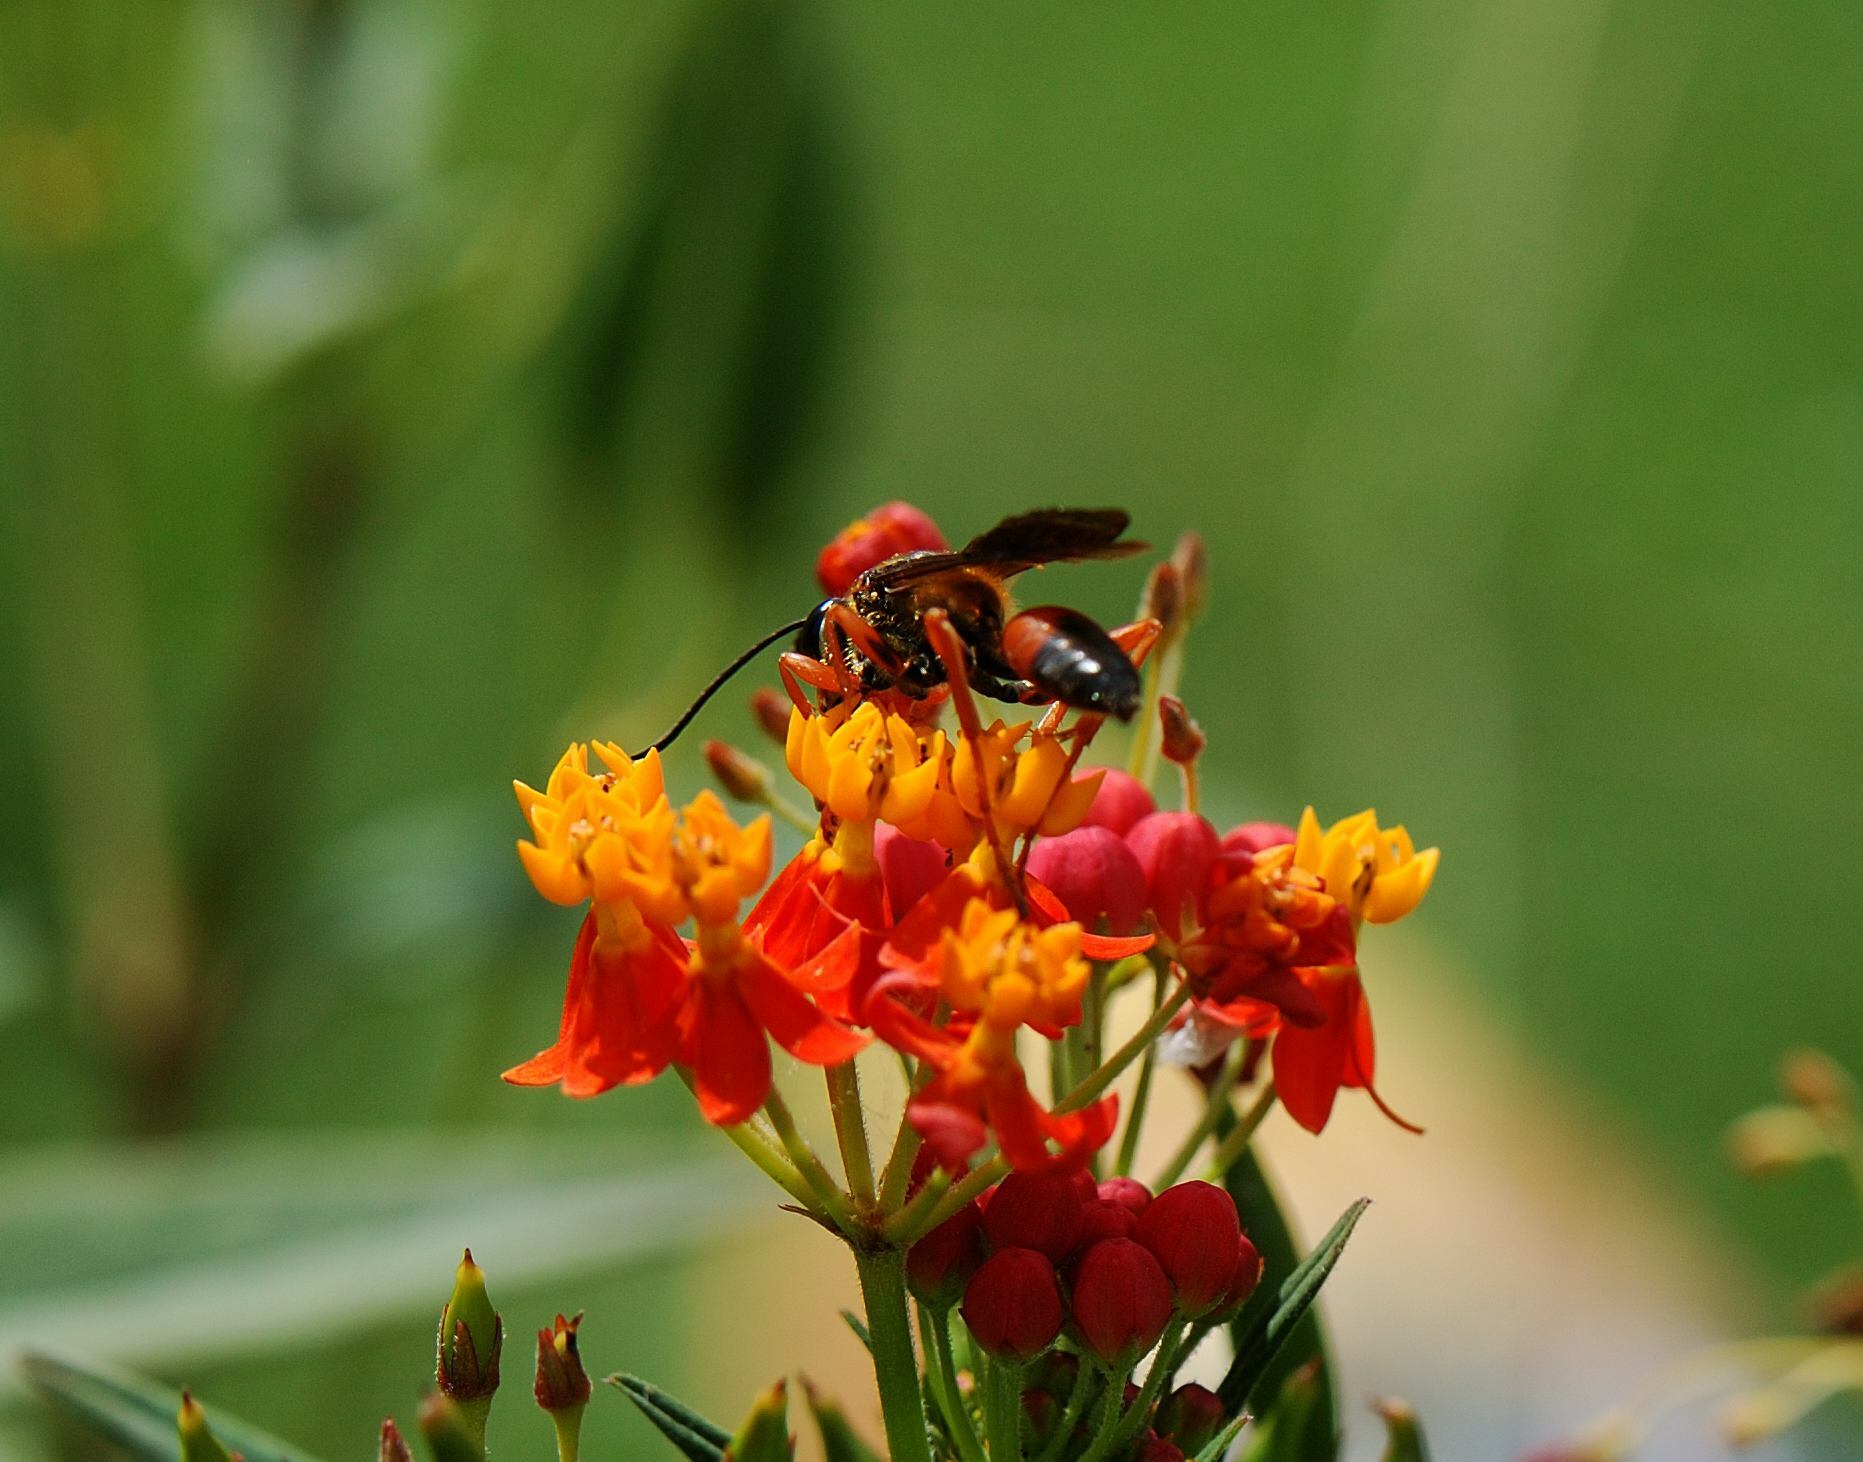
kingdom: Animalia
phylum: Arthropoda
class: Insecta
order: Hymenoptera
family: Sphecidae
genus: Sphex
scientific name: Sphex ichneumoneus
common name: Great golden digger wasp
